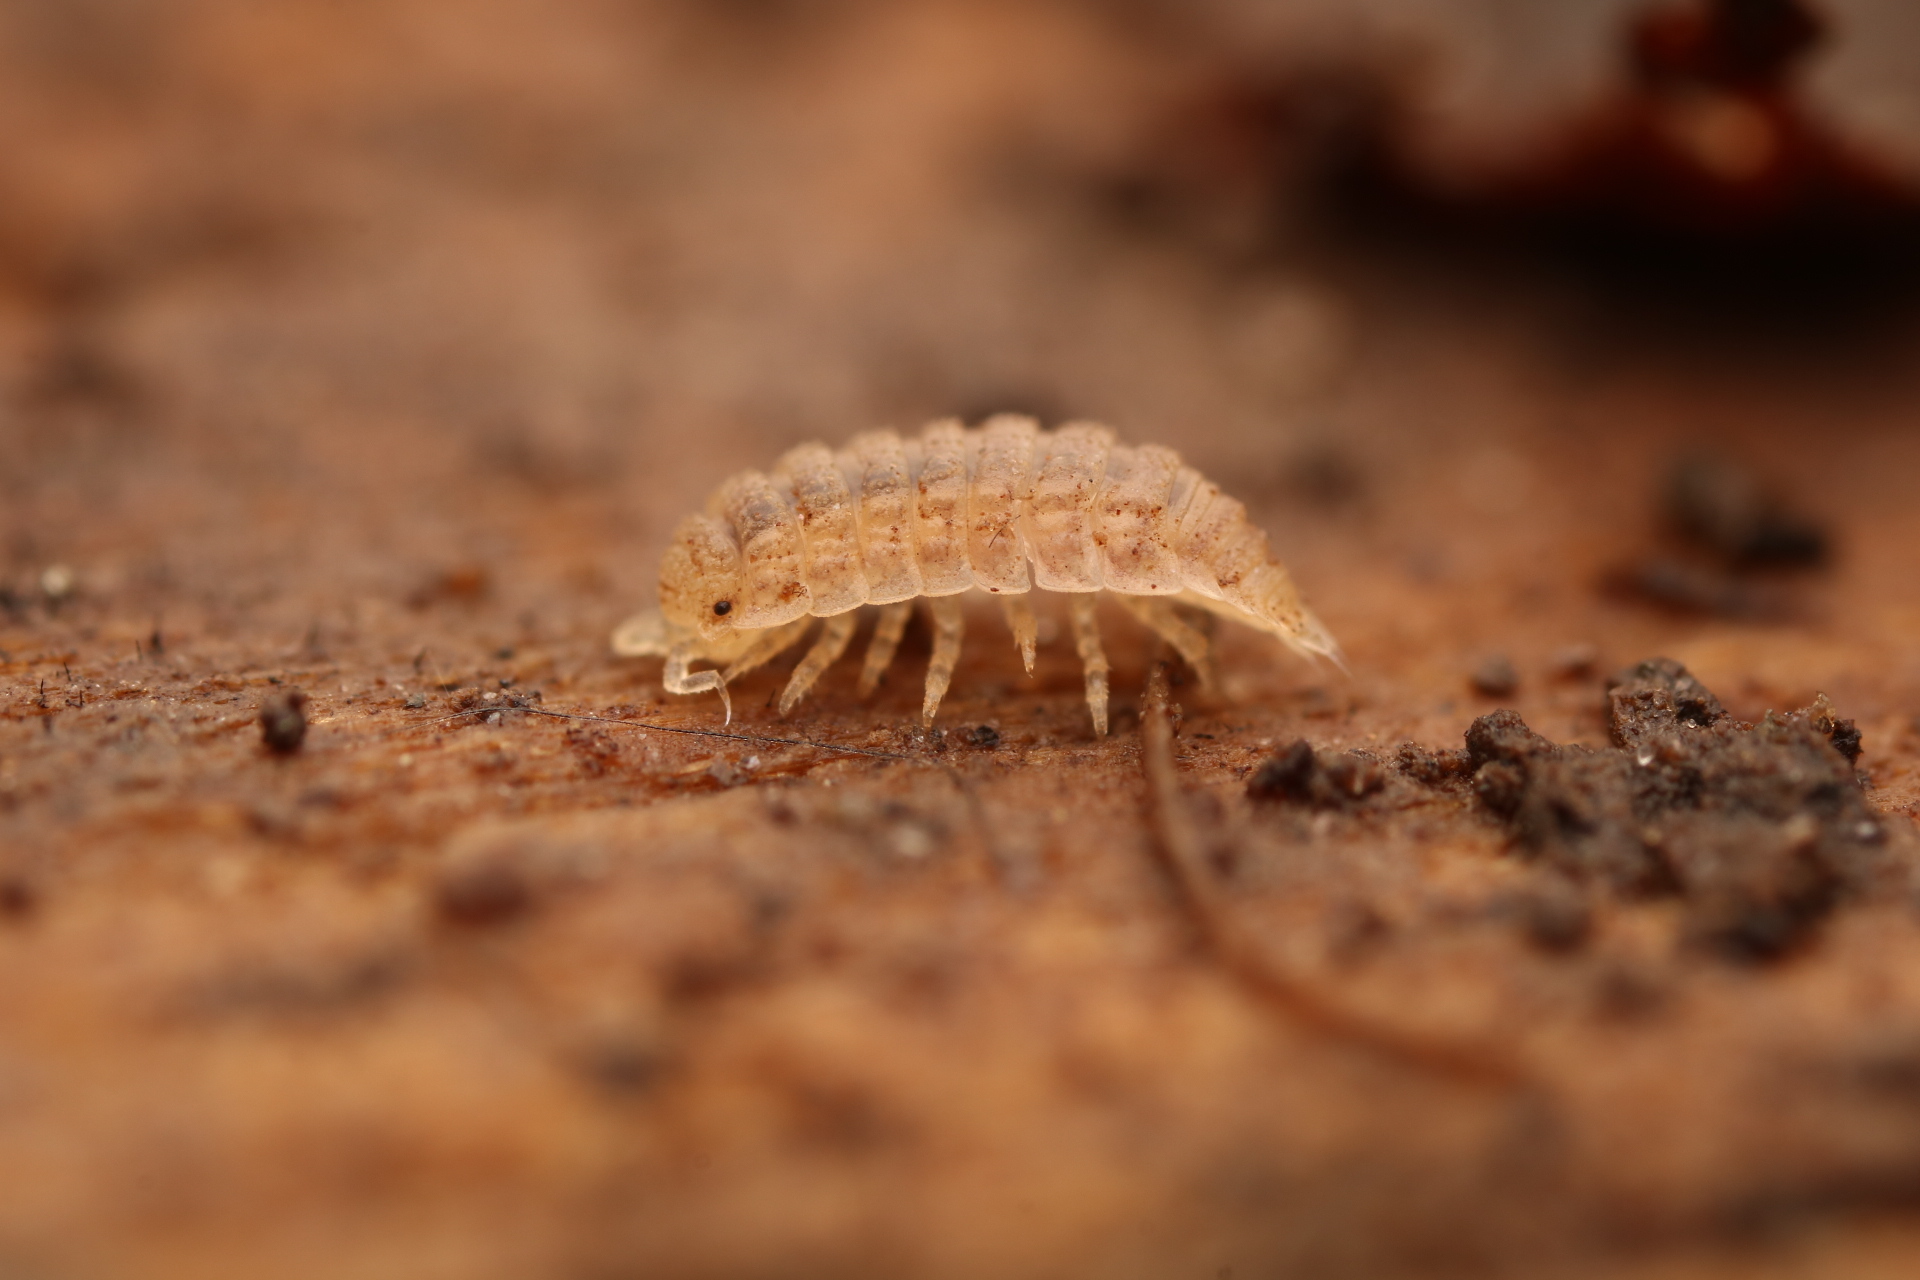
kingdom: Animalia
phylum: Arthropoda
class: Malacostraca
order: Isopoda
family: Trichoniscidae
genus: Haplophthalmus
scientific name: Haplophthalmus danicus
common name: Pillbug
